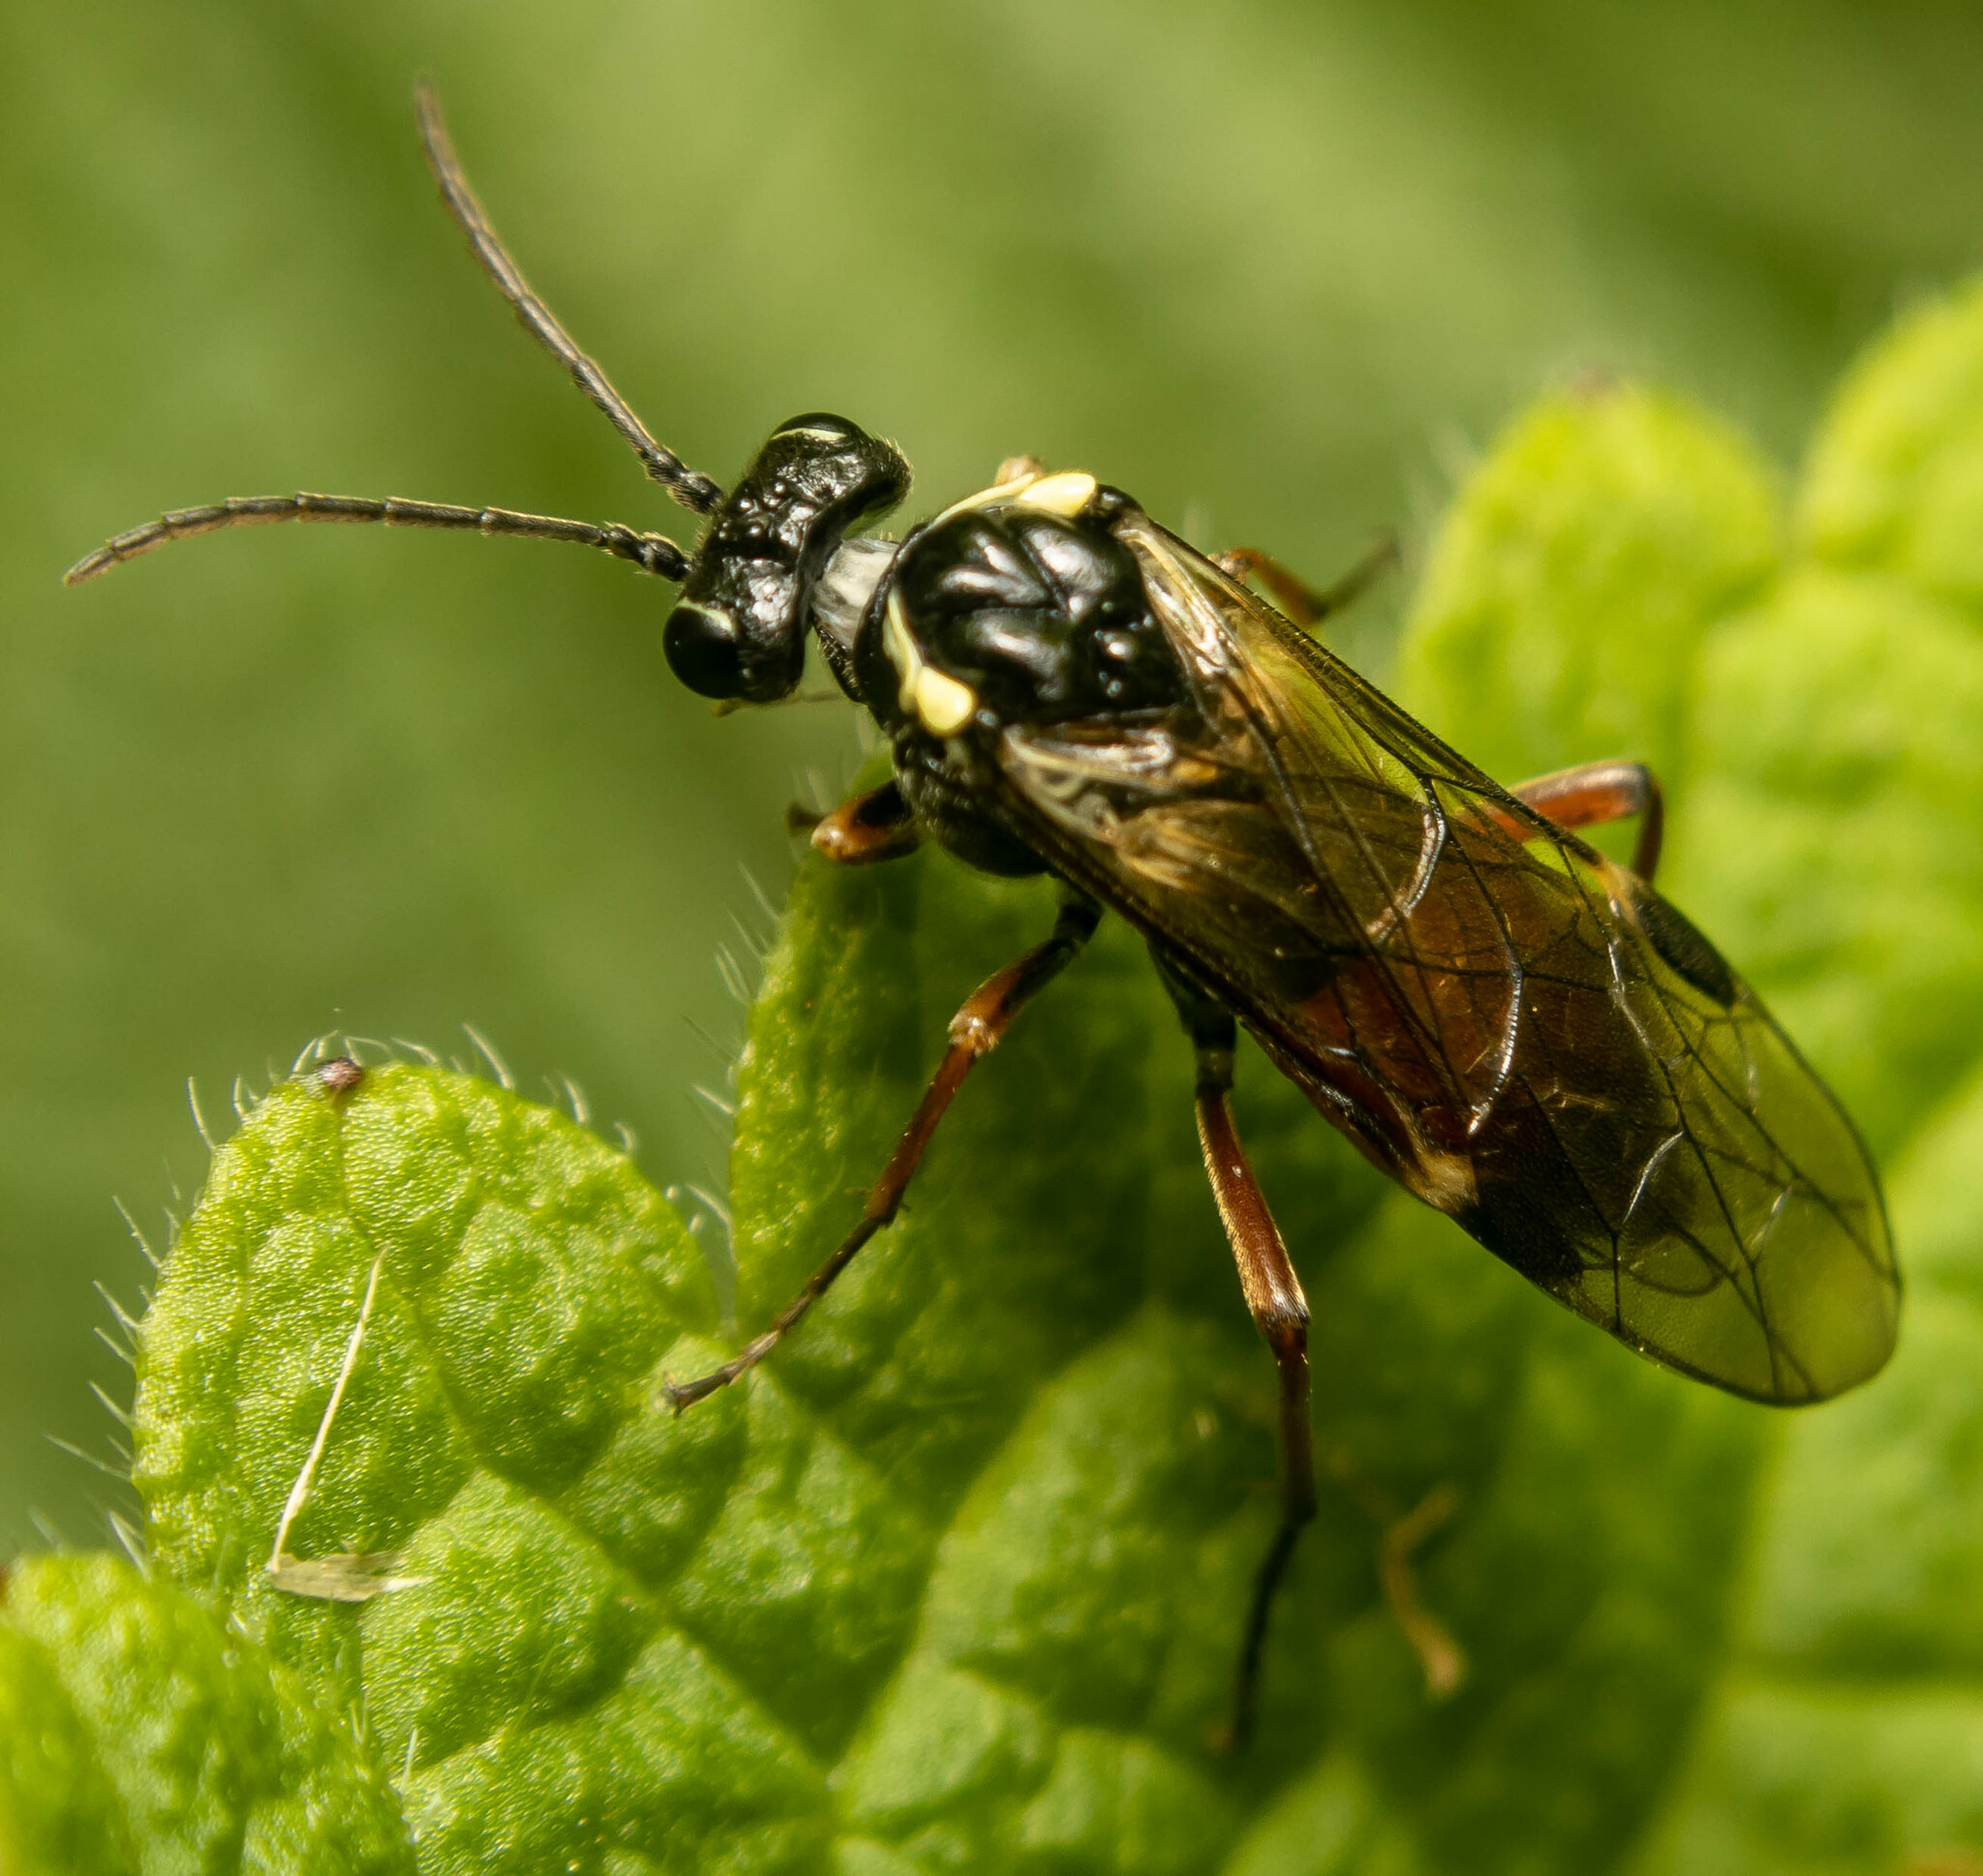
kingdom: Animalia
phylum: Arthropoda
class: Insecta
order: Hymenoptera
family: Tenthredinidae
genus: Aglaostigma
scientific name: Aglaostigma aucupariae
